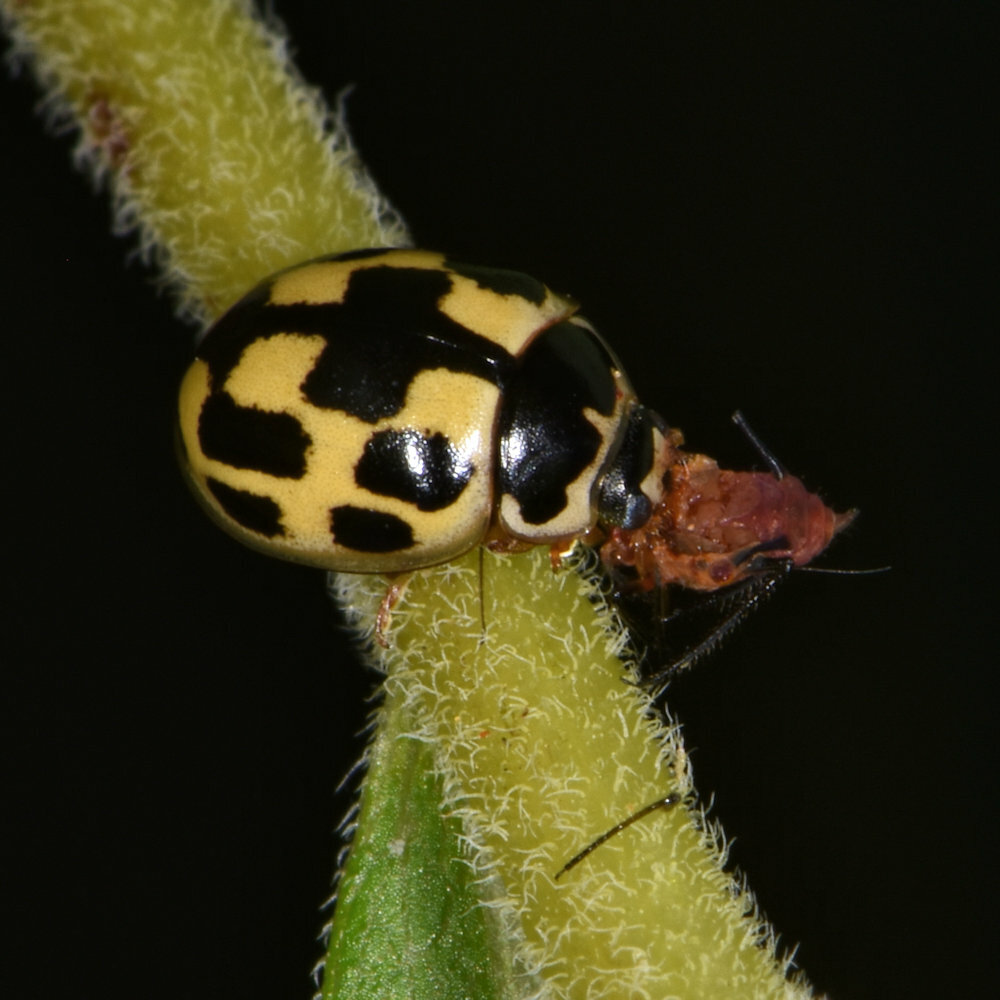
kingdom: Animalia
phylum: Arthropoda
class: Insecta
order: Coleoptera
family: Coccinellidae
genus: Propylaea
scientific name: Propylaea quatuordecimpunctata
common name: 14-spotted ladybird beetle
